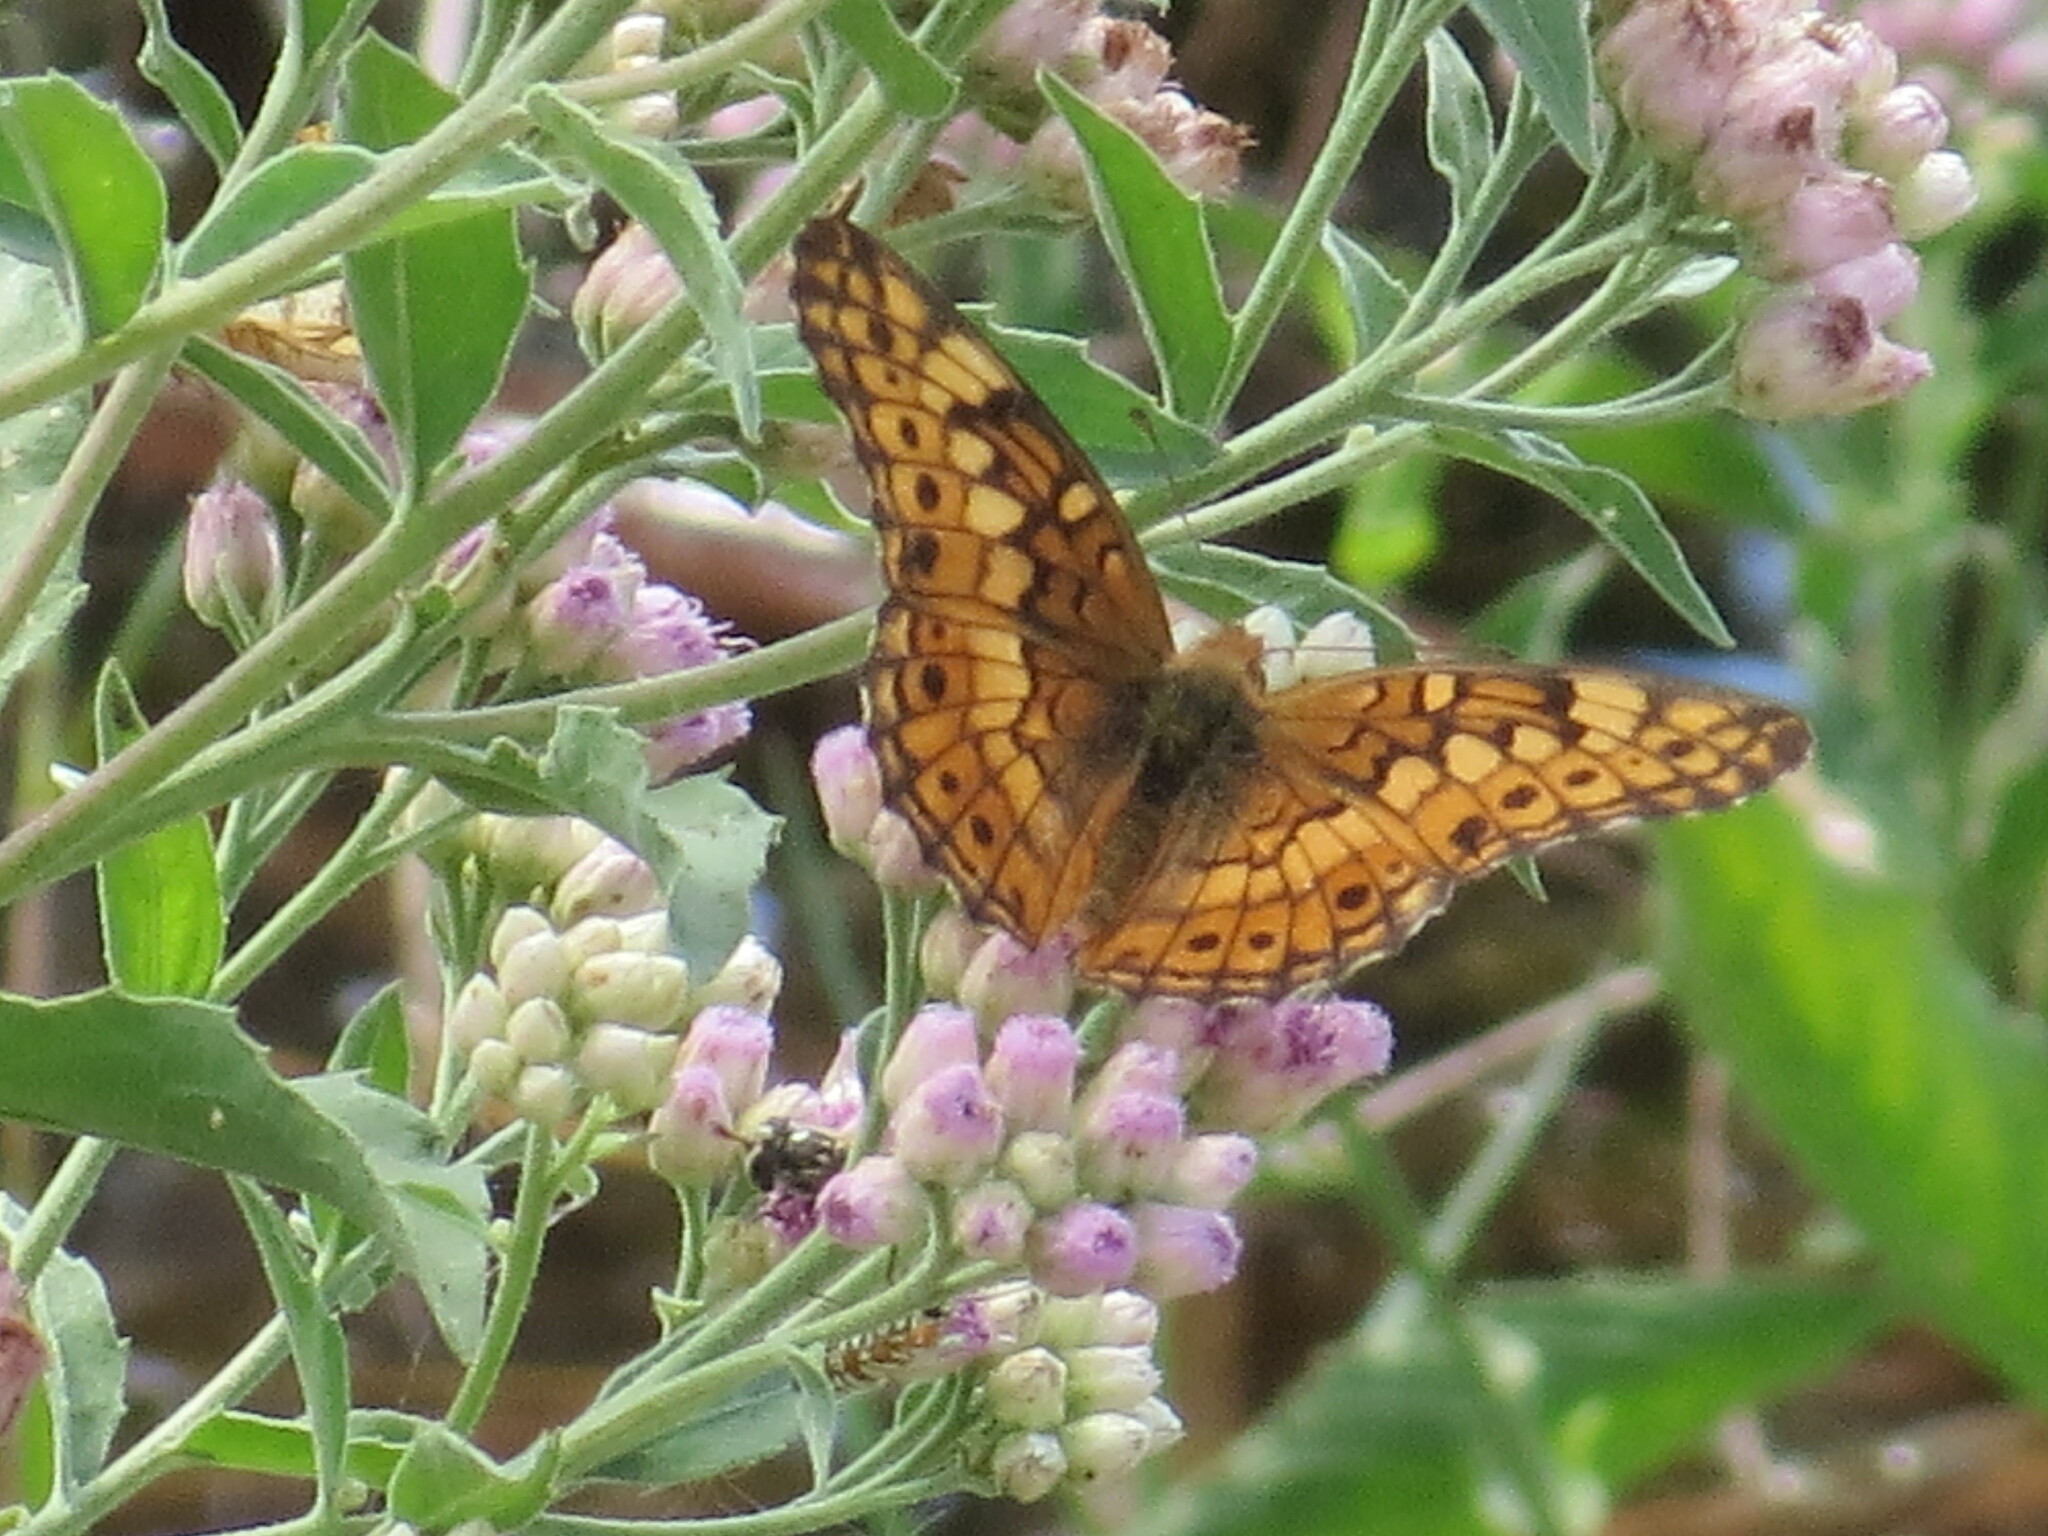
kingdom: Animalia
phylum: Arthropoda
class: Insecta
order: Lepidoptera
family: Nymphalidae
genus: Euptoieta
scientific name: Euptoieta claudia
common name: Variegated fritillary
